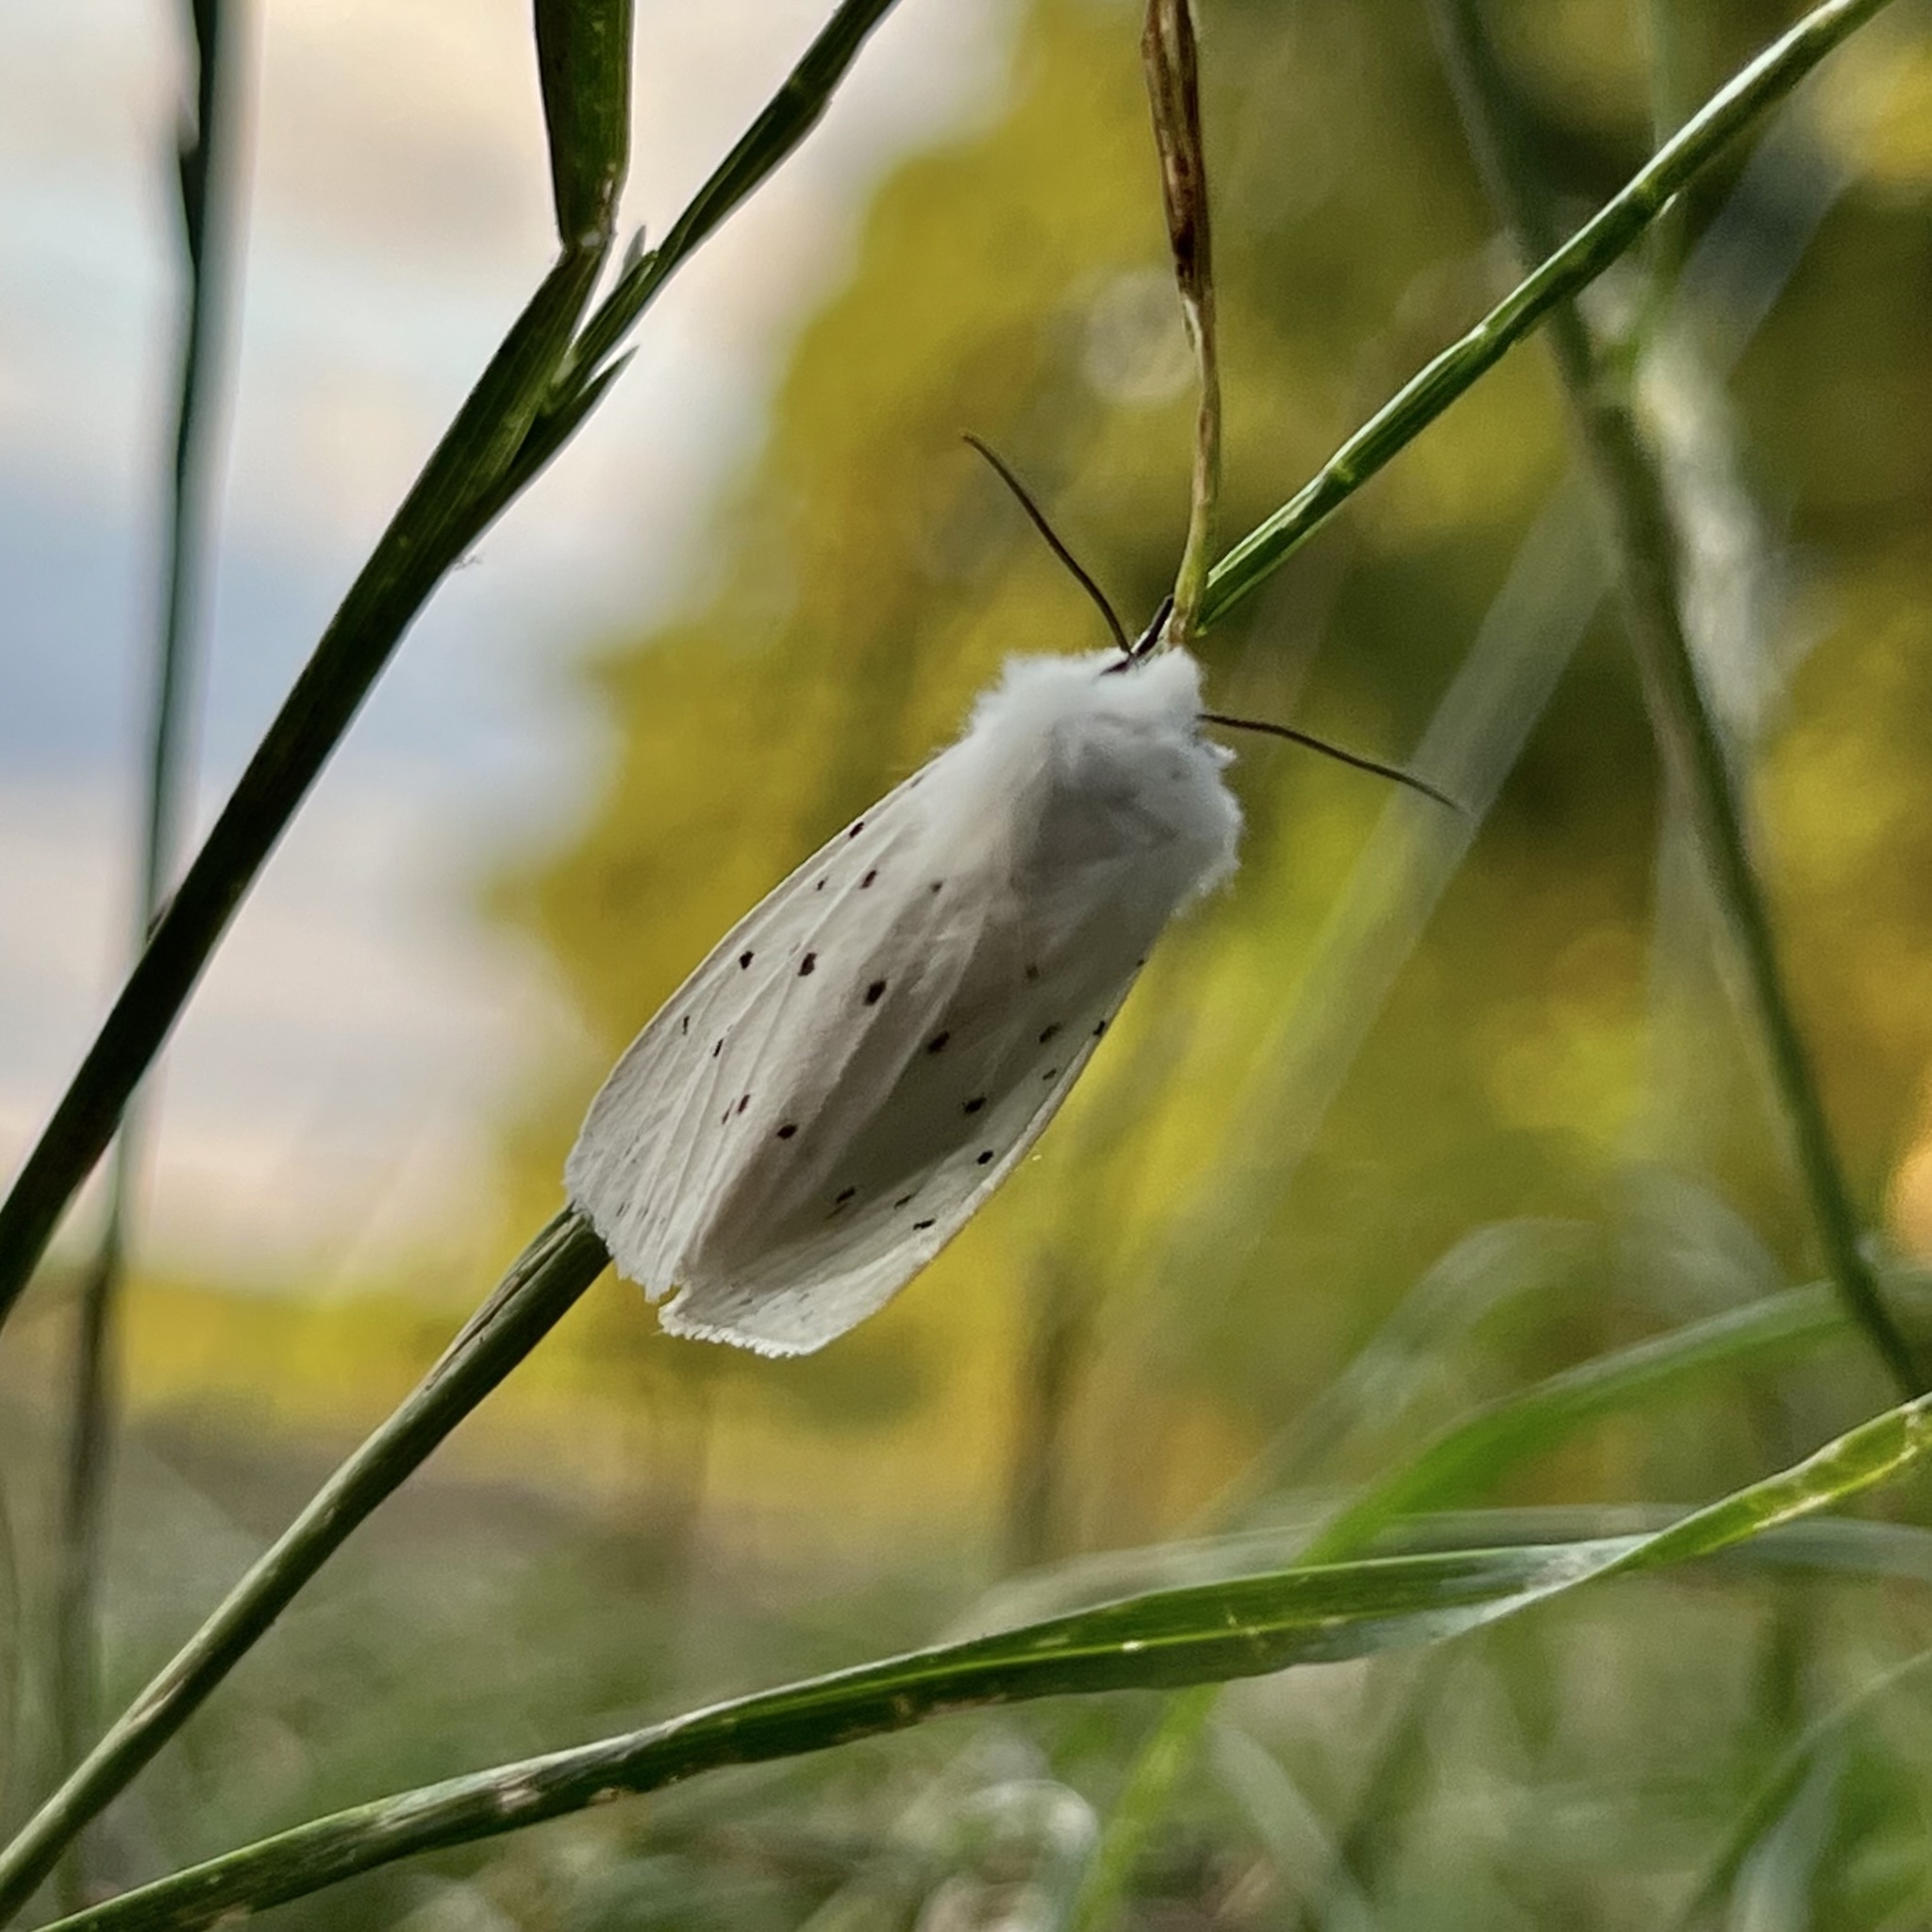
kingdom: Animalia
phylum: Arthropoda
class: Insecta
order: Lepidoptera
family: Erebidae
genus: Spilosoma
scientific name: Spilosoma lubricipeda
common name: White ermine
